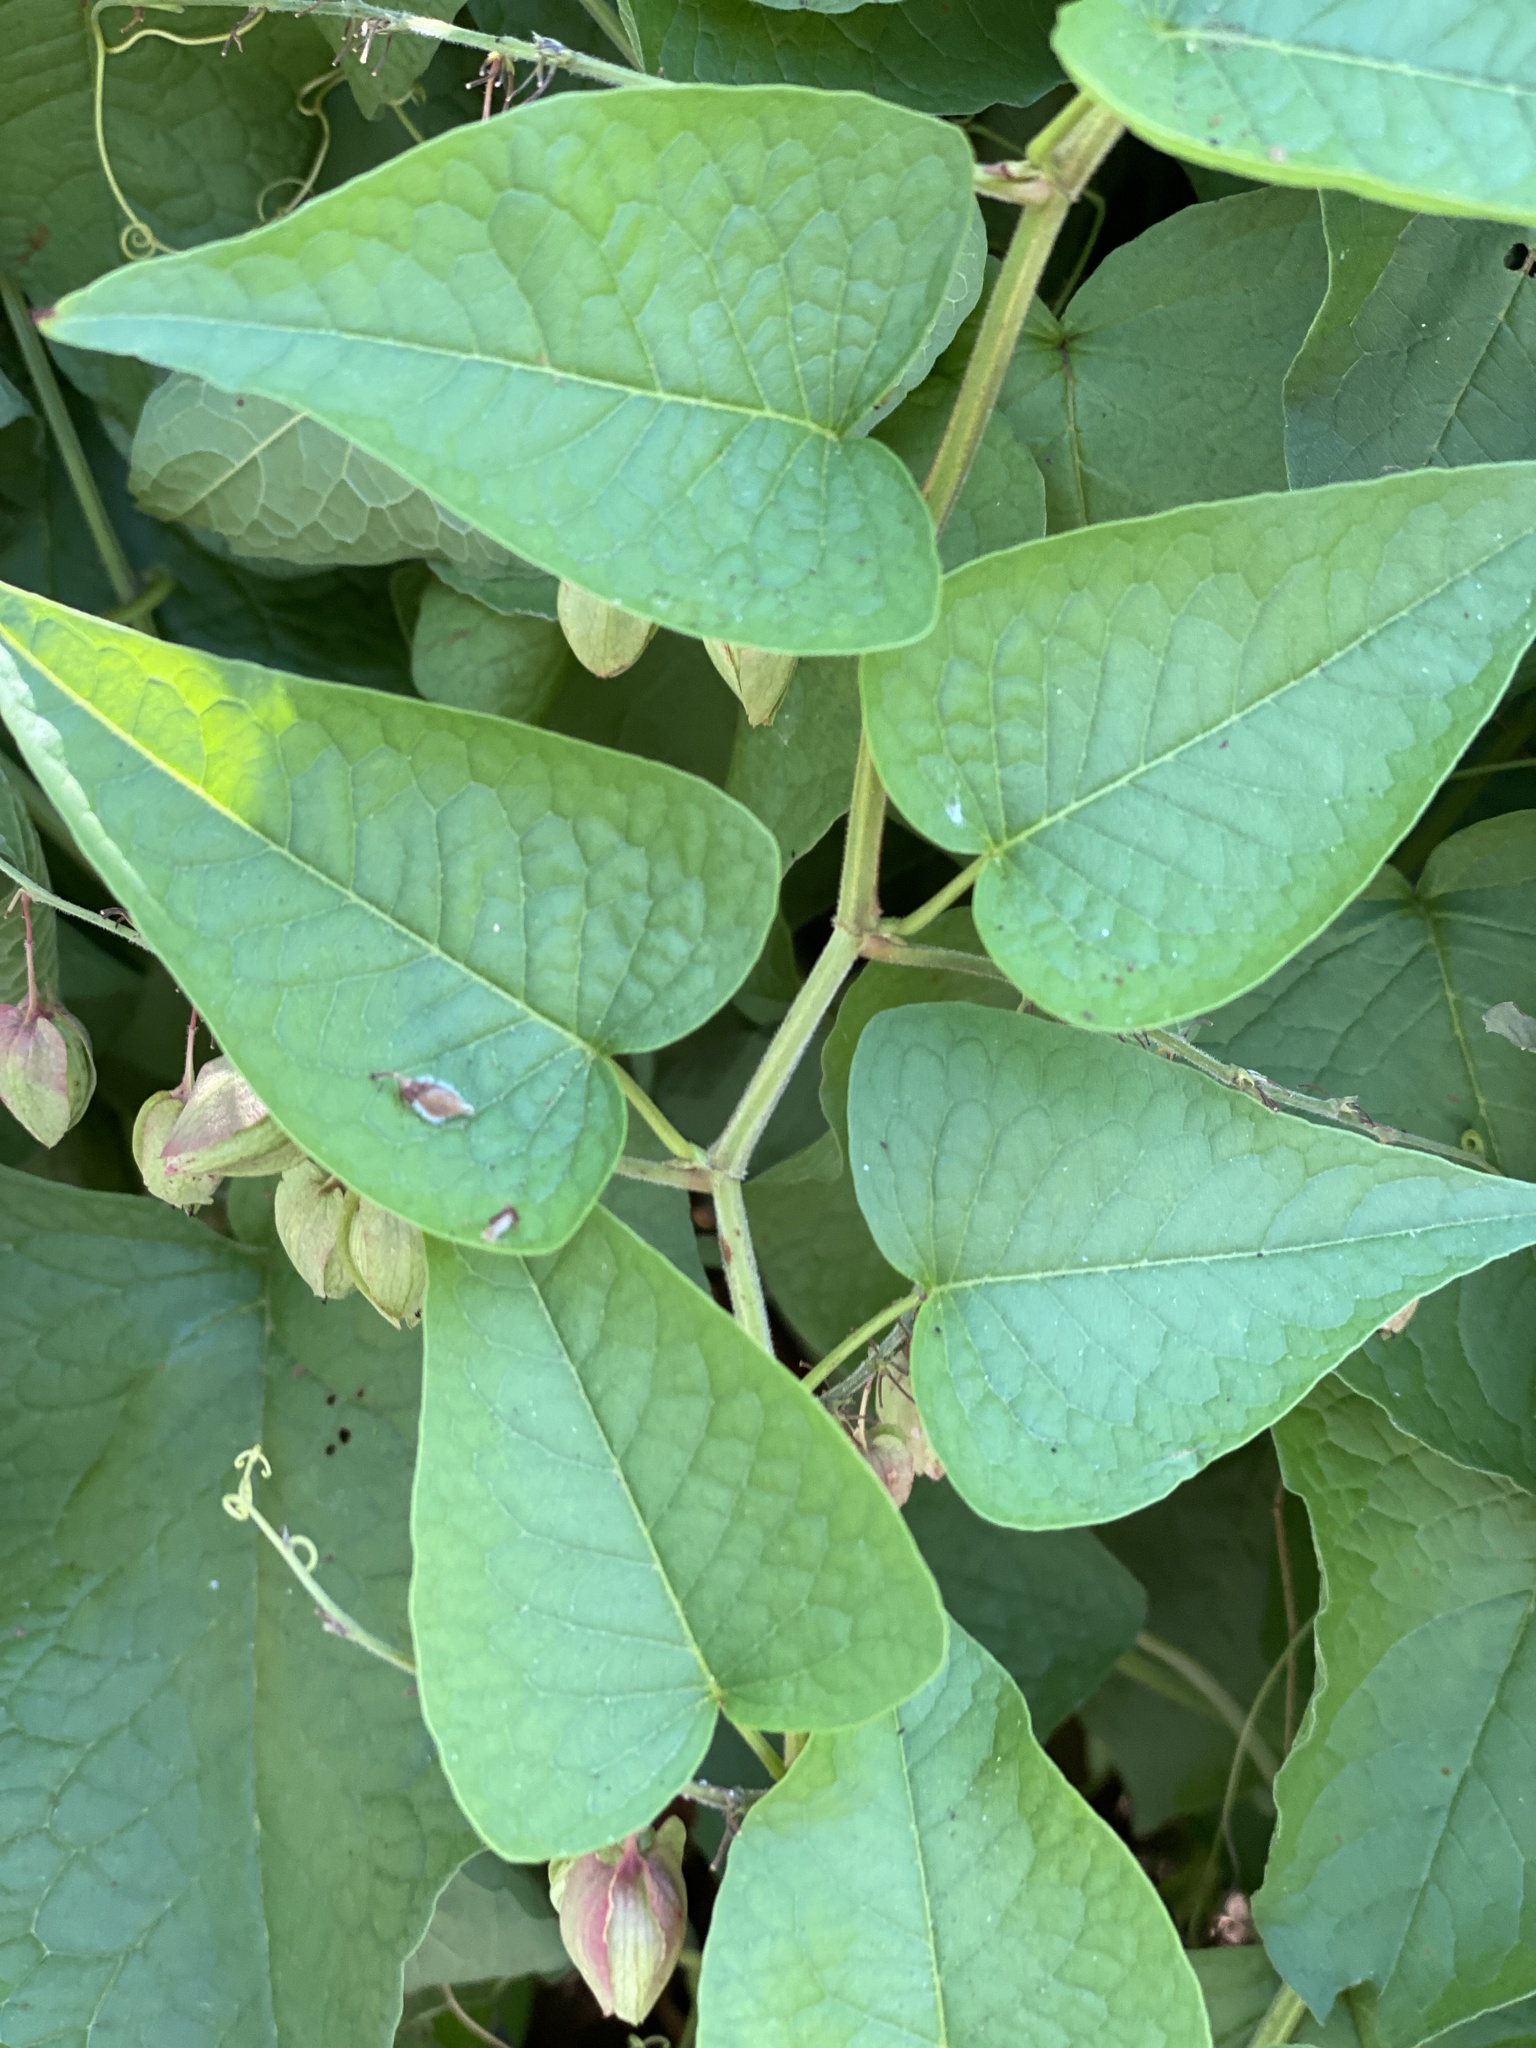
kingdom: Plantae
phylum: Tracheophyta
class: Magnoliopsida
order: Caryophyllales
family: Polygonaceae
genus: Antigonon
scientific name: Antigonon leptopus
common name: Coral vine
